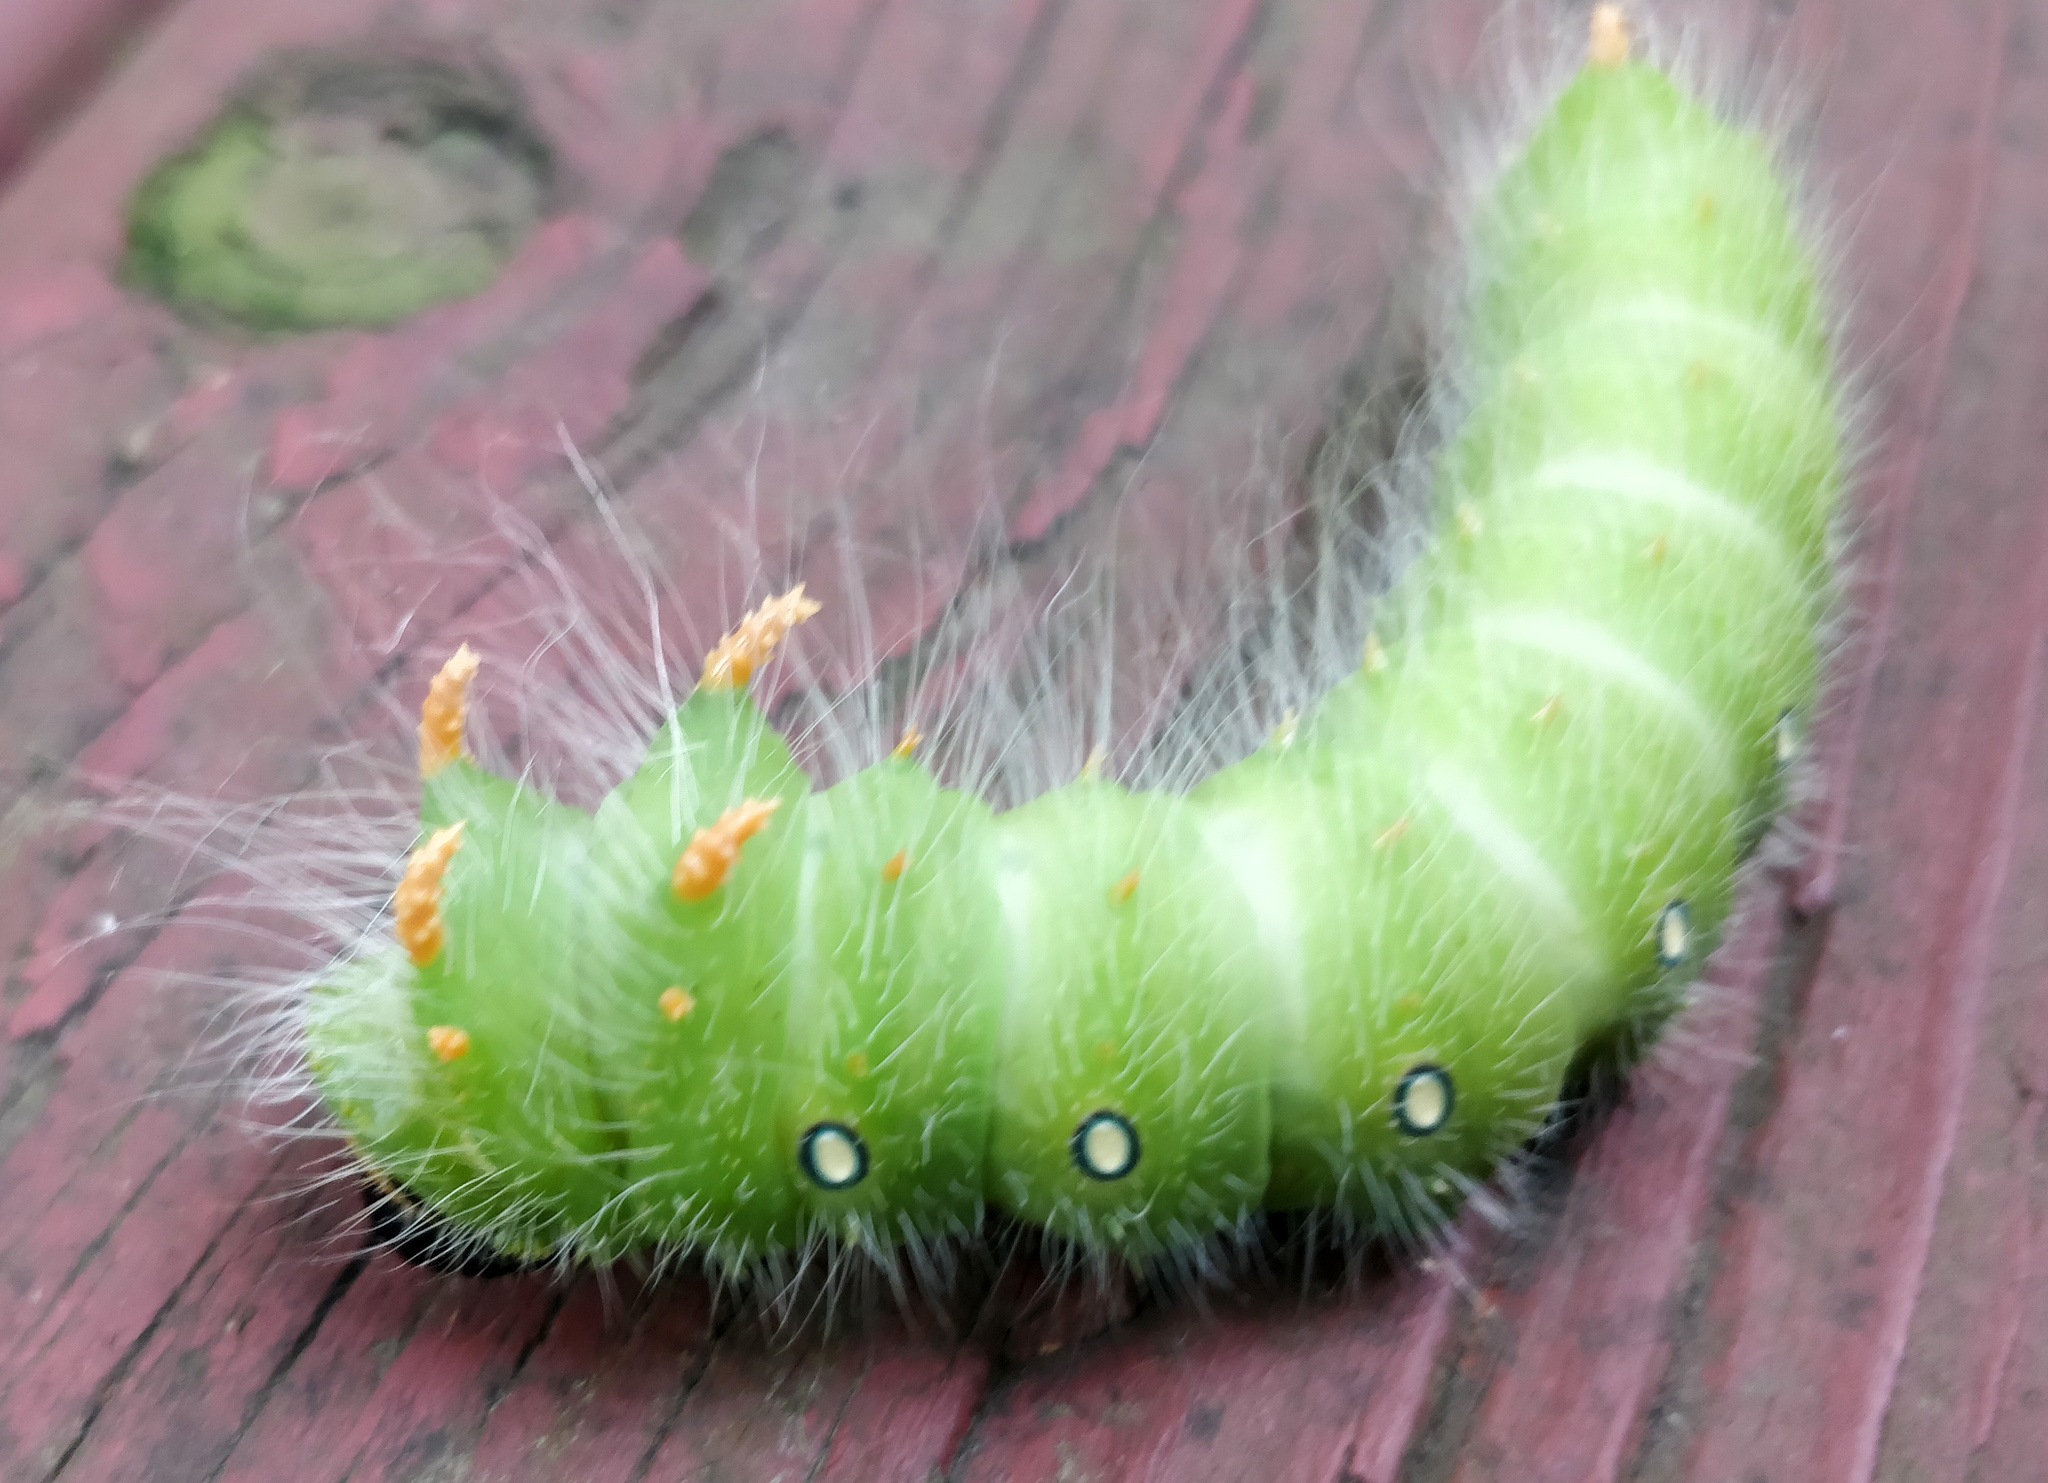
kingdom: Animalia
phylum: Arthropoda
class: Insecta
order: Lepidoptera
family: Saturniidae
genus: Eacles
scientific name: Eacles imperialis
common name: Imperial moth
